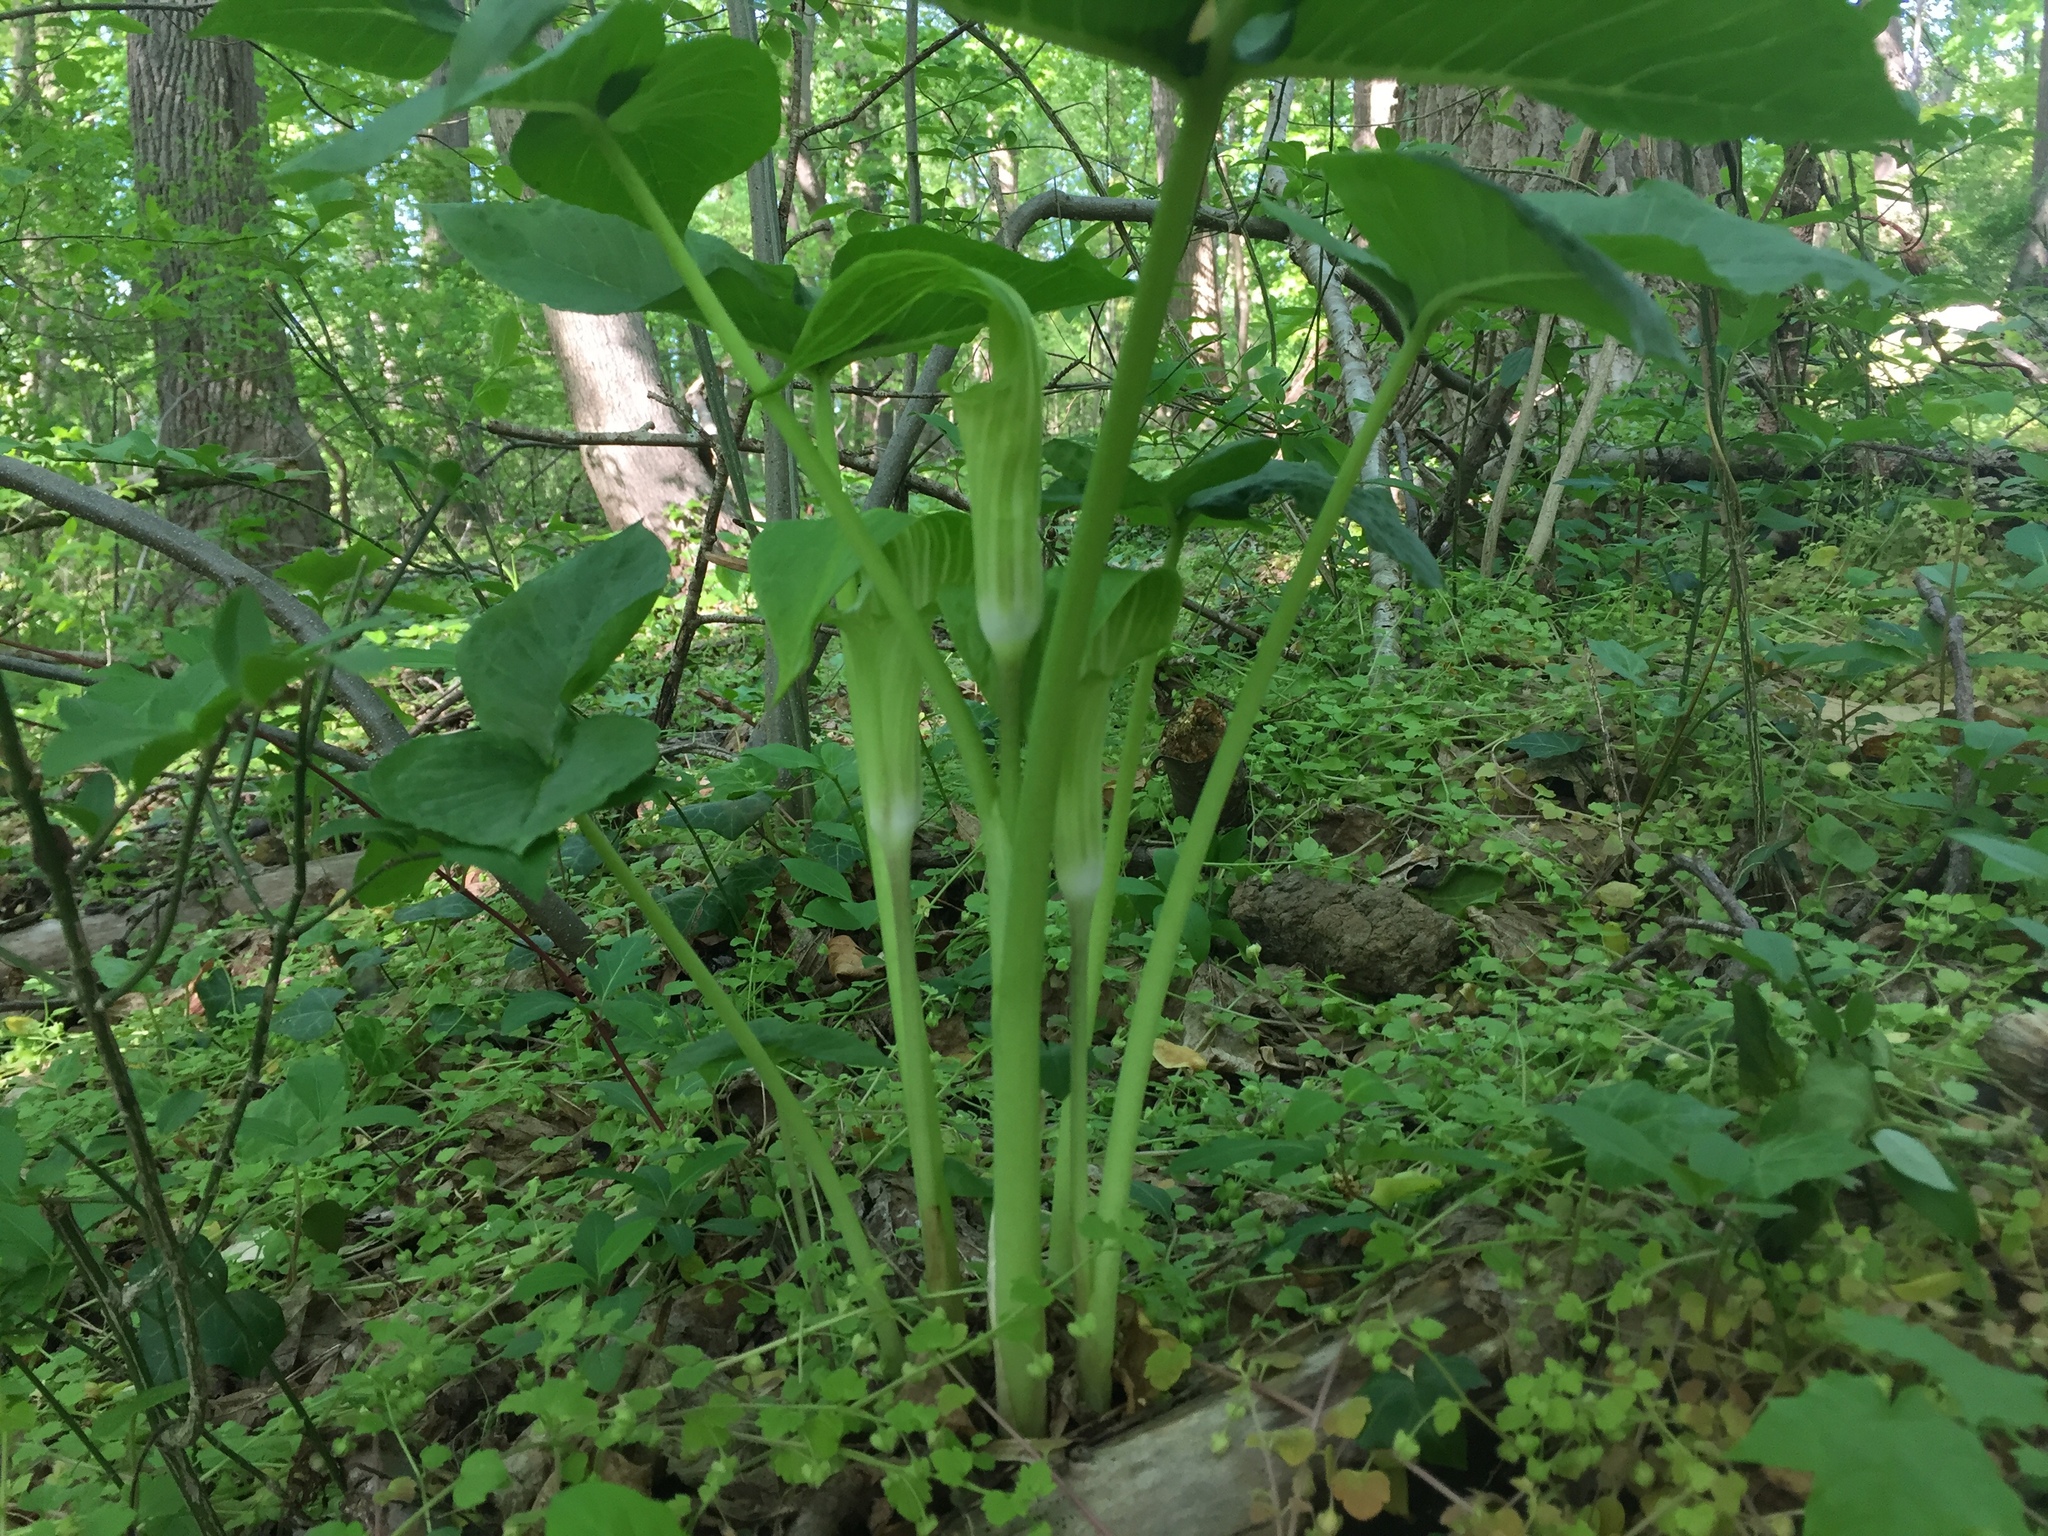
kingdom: Plantae
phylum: Tracheophyta
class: Liliopsida
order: Alismatales
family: Araceae
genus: Arisaema
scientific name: Arisaema triphyllum
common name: Jack-in-the-pulpit
